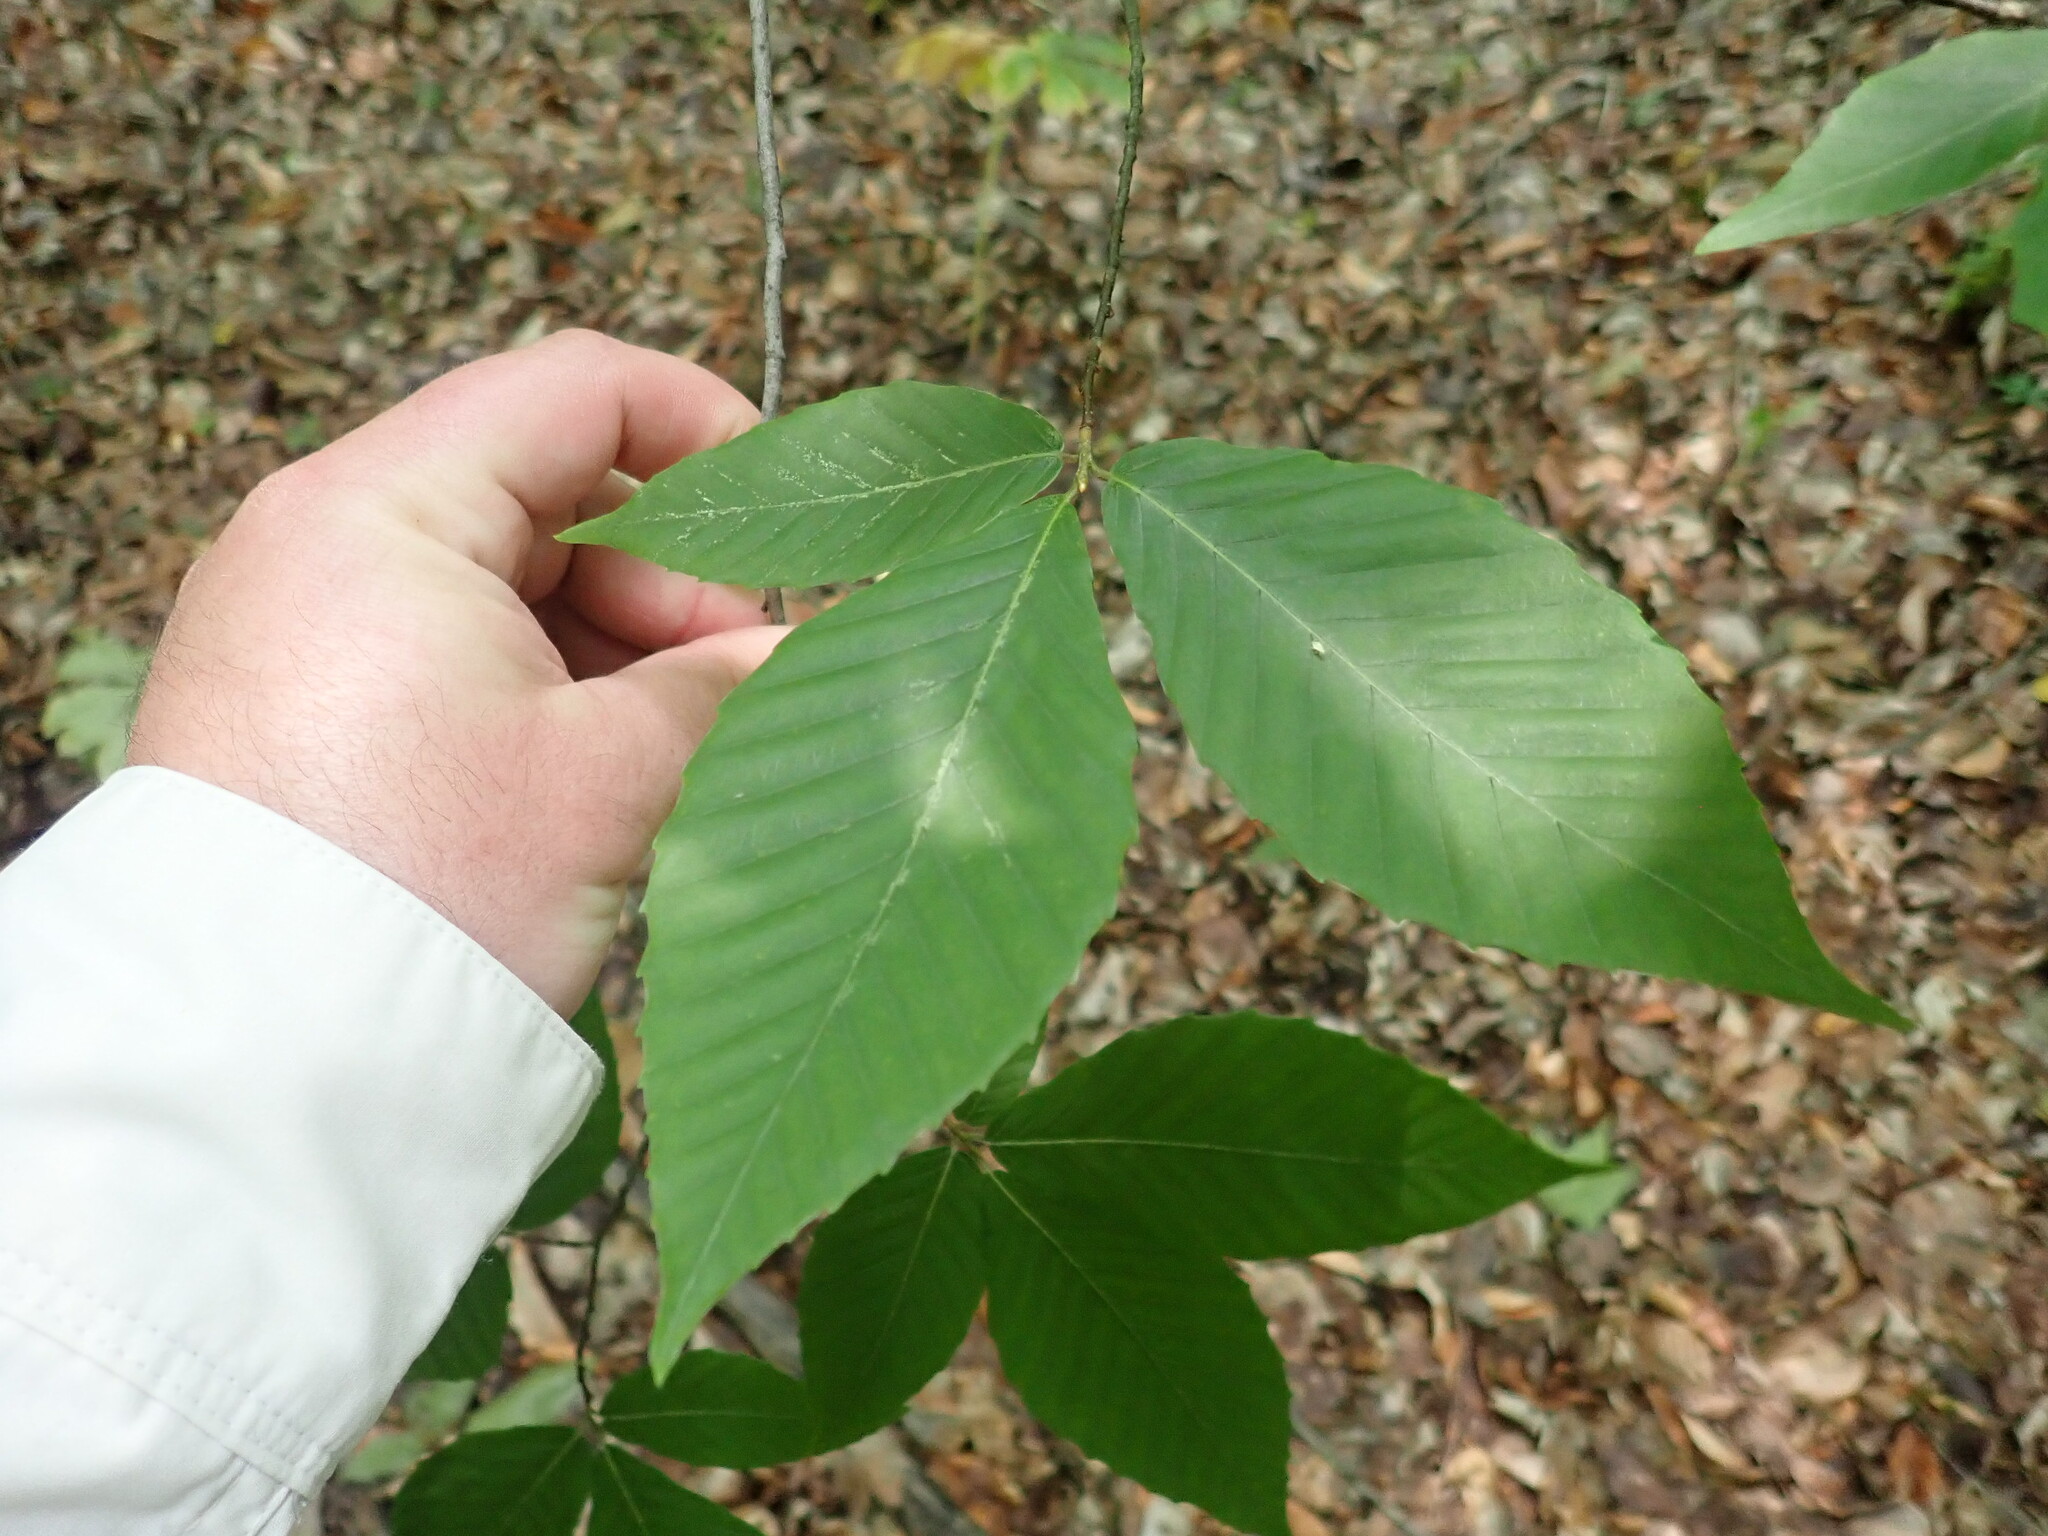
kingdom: Plantae
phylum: Tracheophyta
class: Magnoliopsida
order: Fagales
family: Fagaceae
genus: Fagus
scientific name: Fagus grandifolia
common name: American beech
